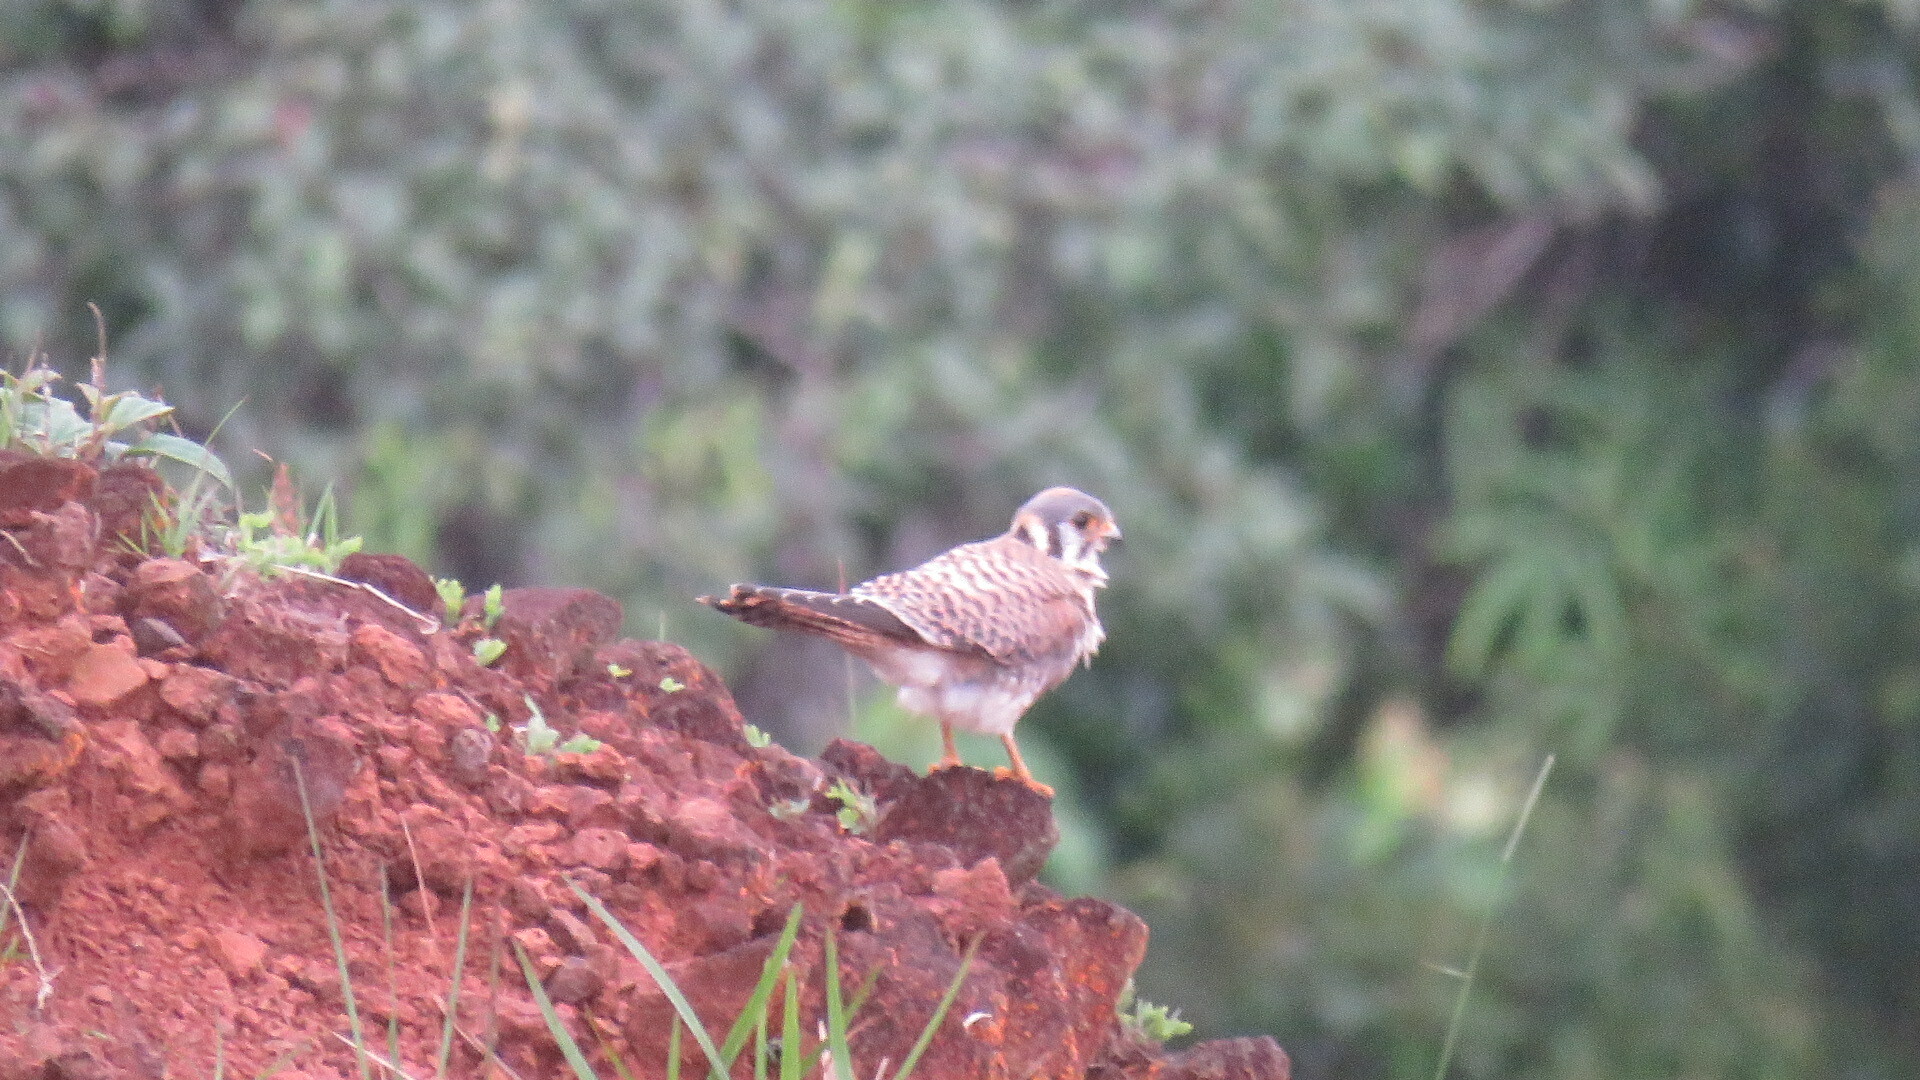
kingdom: Animalia
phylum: Chordata
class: Aves
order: Falconiformes
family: Falconidae
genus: Falco
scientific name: Falco sparverius
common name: American kestrel
